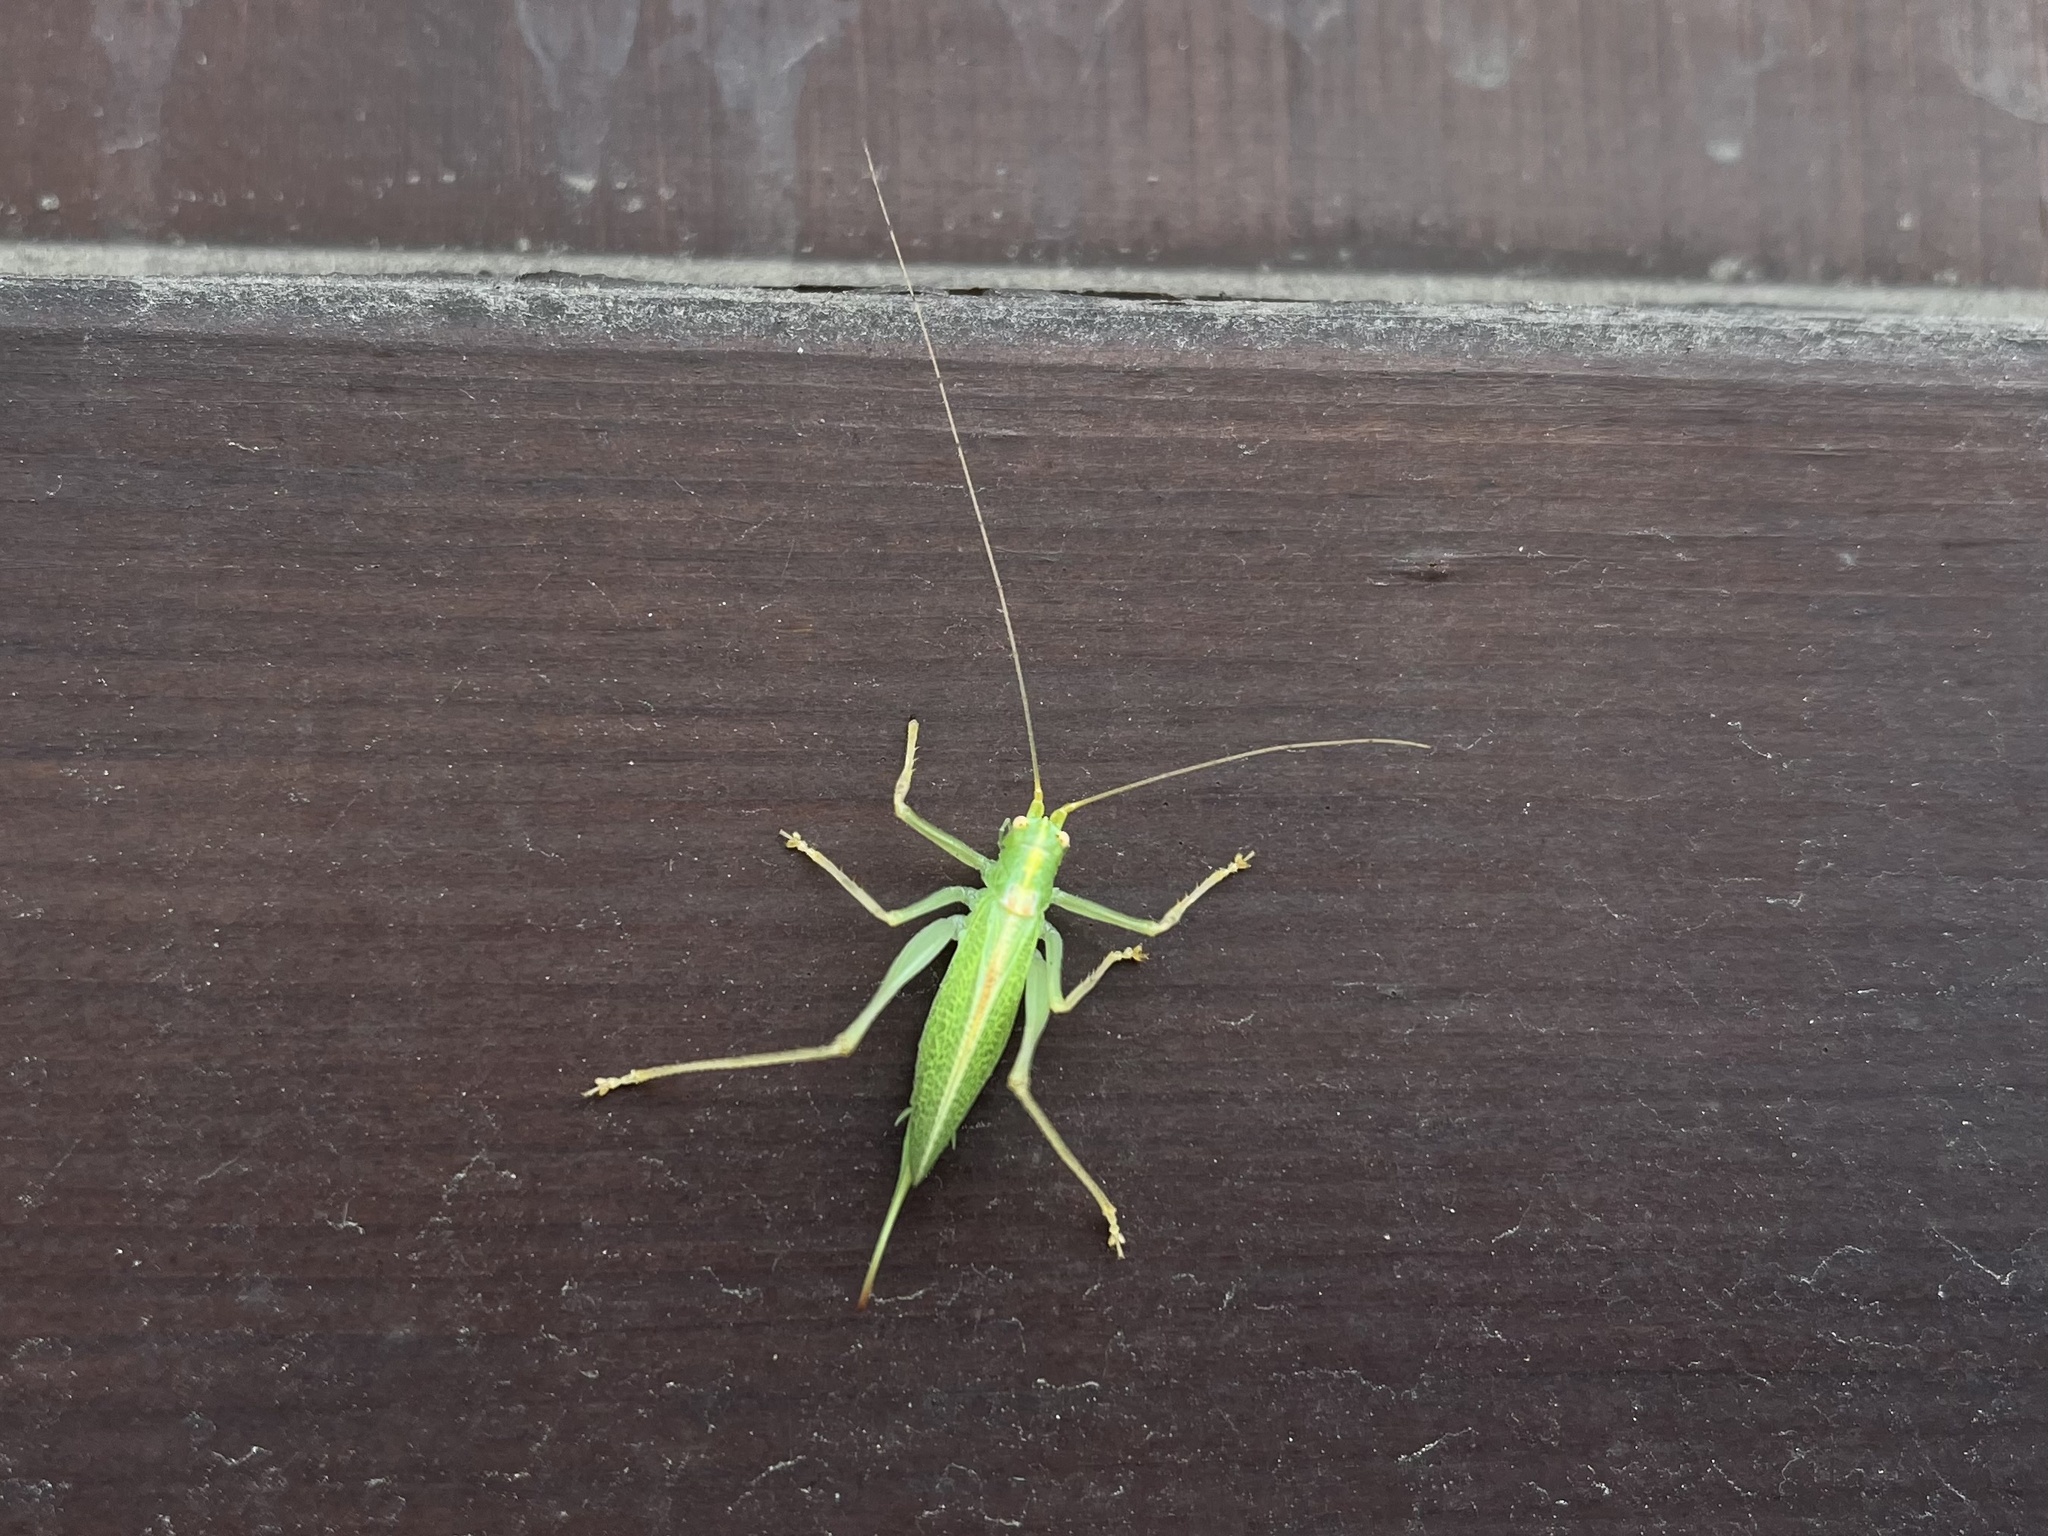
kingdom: Animalia
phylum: Arthropoda
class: Insecta
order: Orthoptera
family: Tettigoniidae
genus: Meconema
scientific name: Meconema thalassinum
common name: Oak bush-cricket
